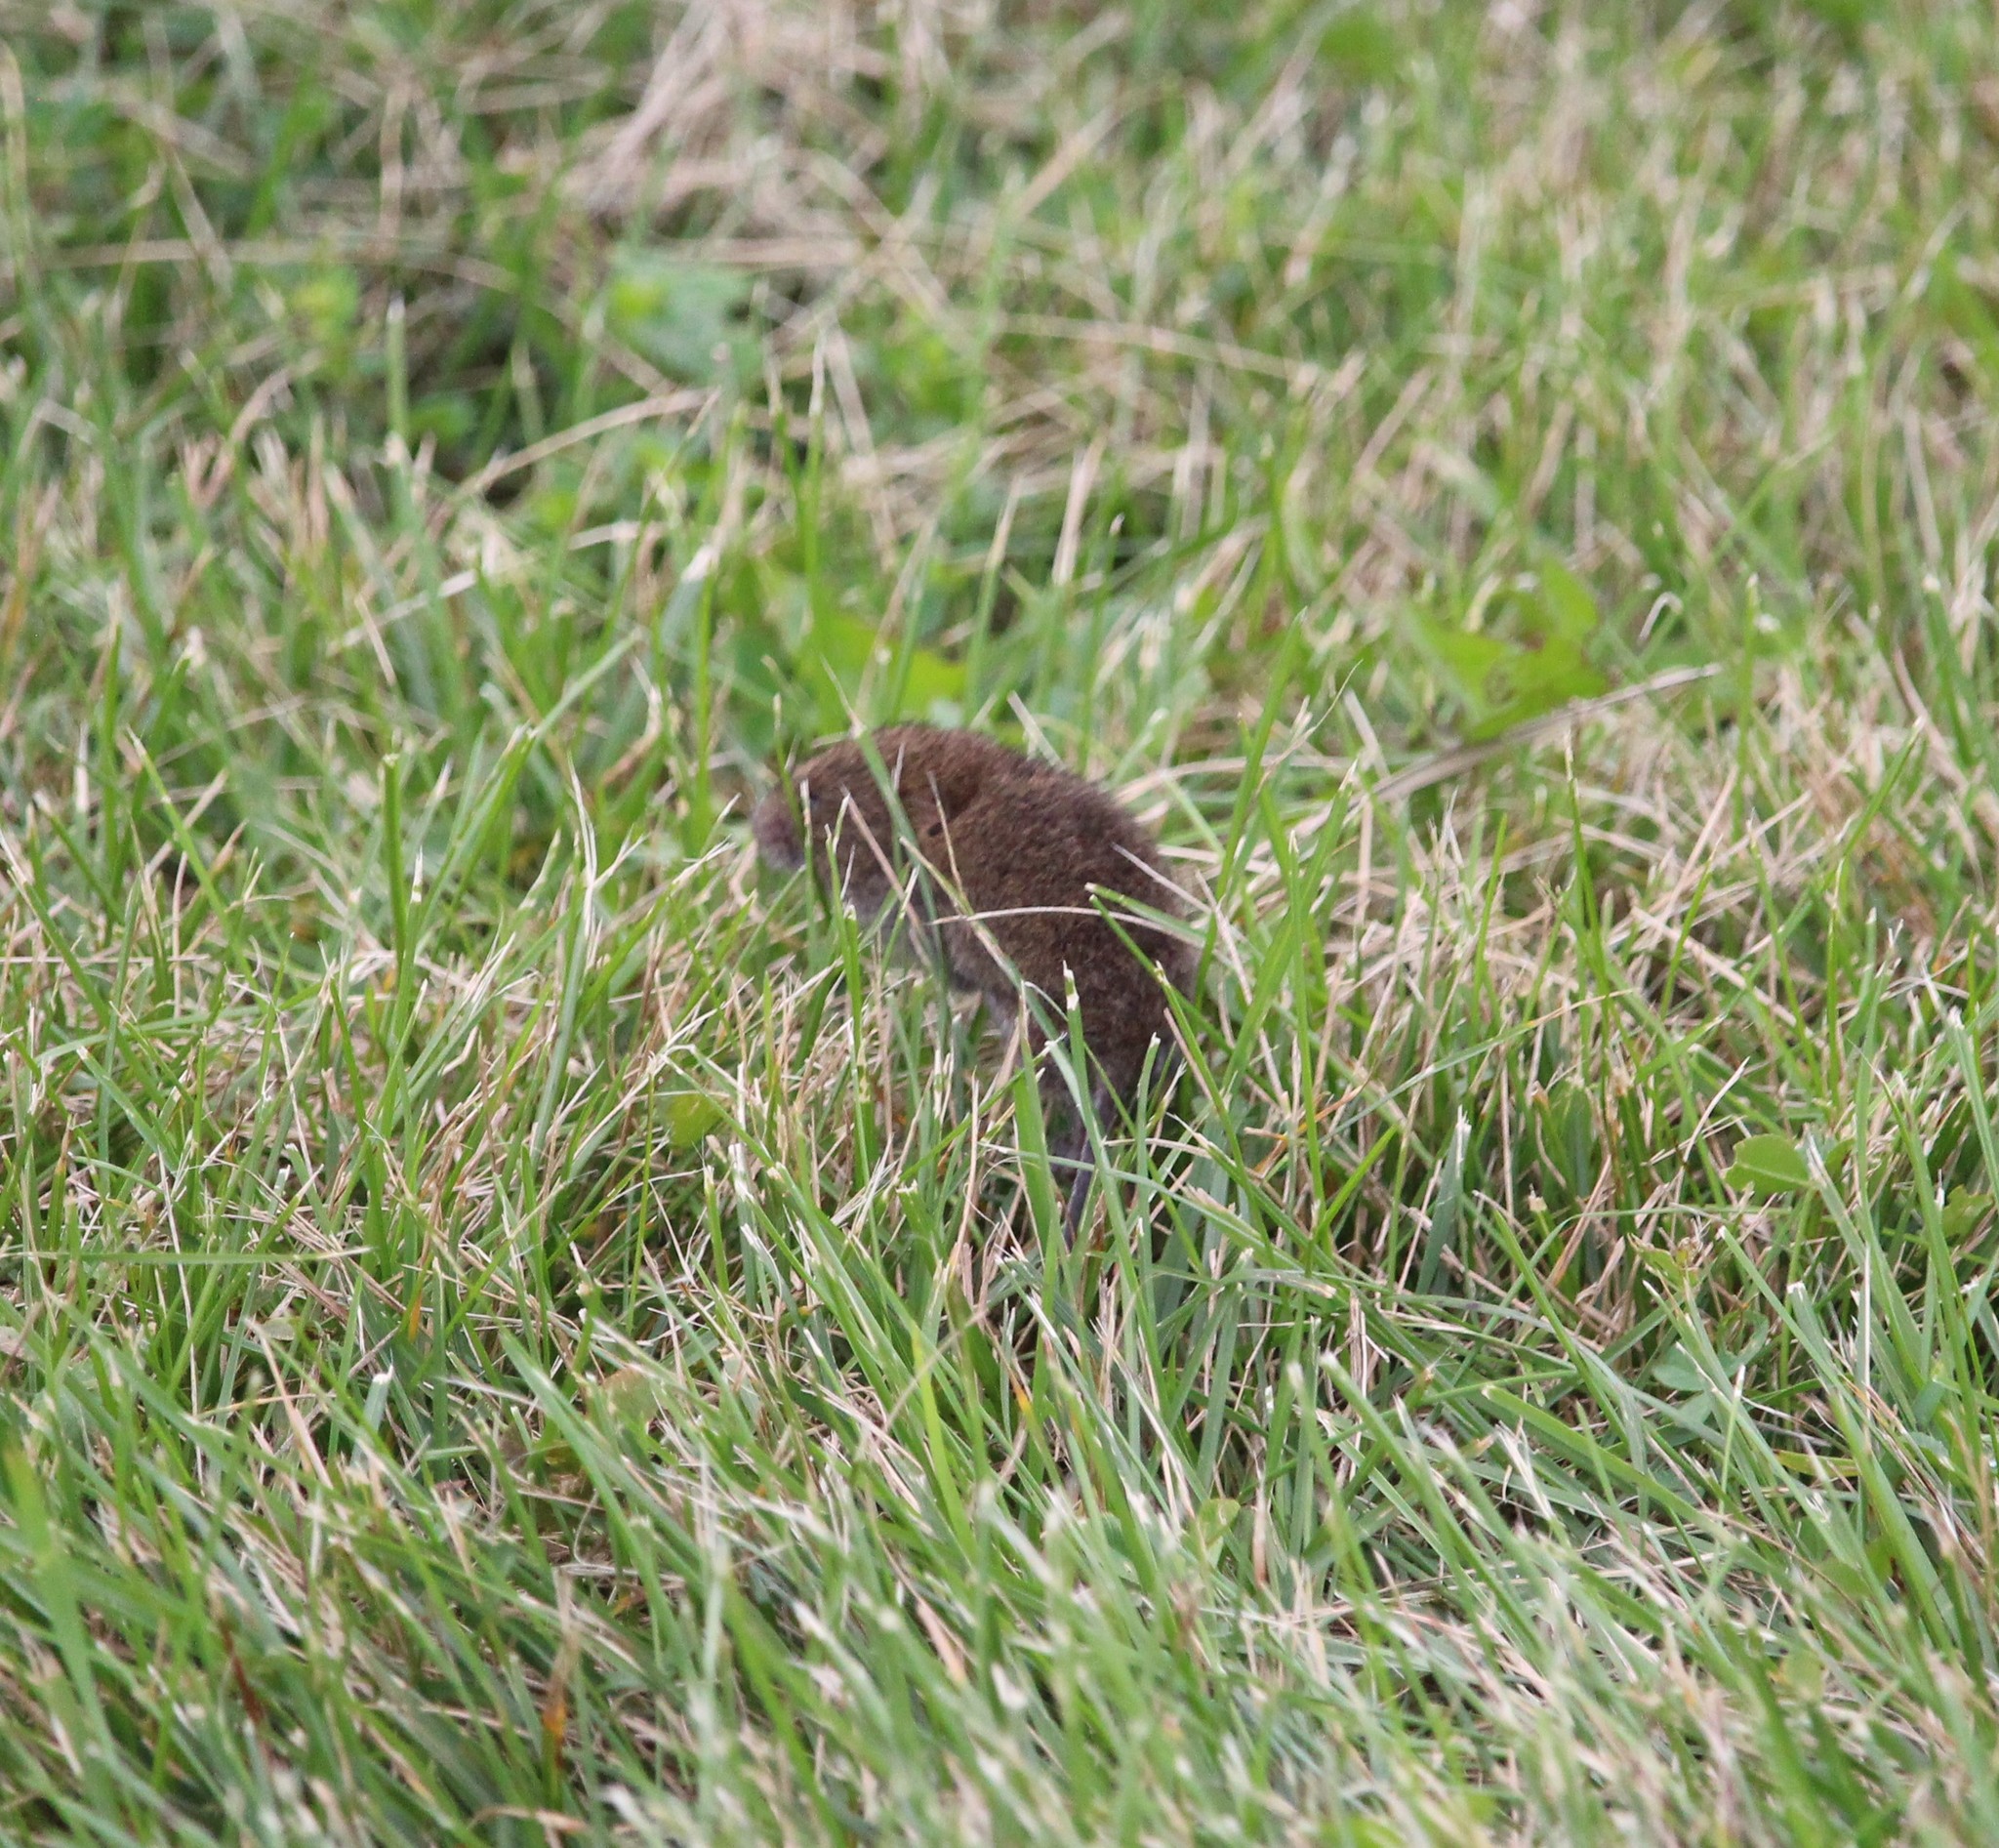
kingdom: Animalia
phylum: Chordata
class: Mammalia
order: Rodentia
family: Cricetidae
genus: Microtus
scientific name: Microtus pennsylvanicus
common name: Meadow vole
